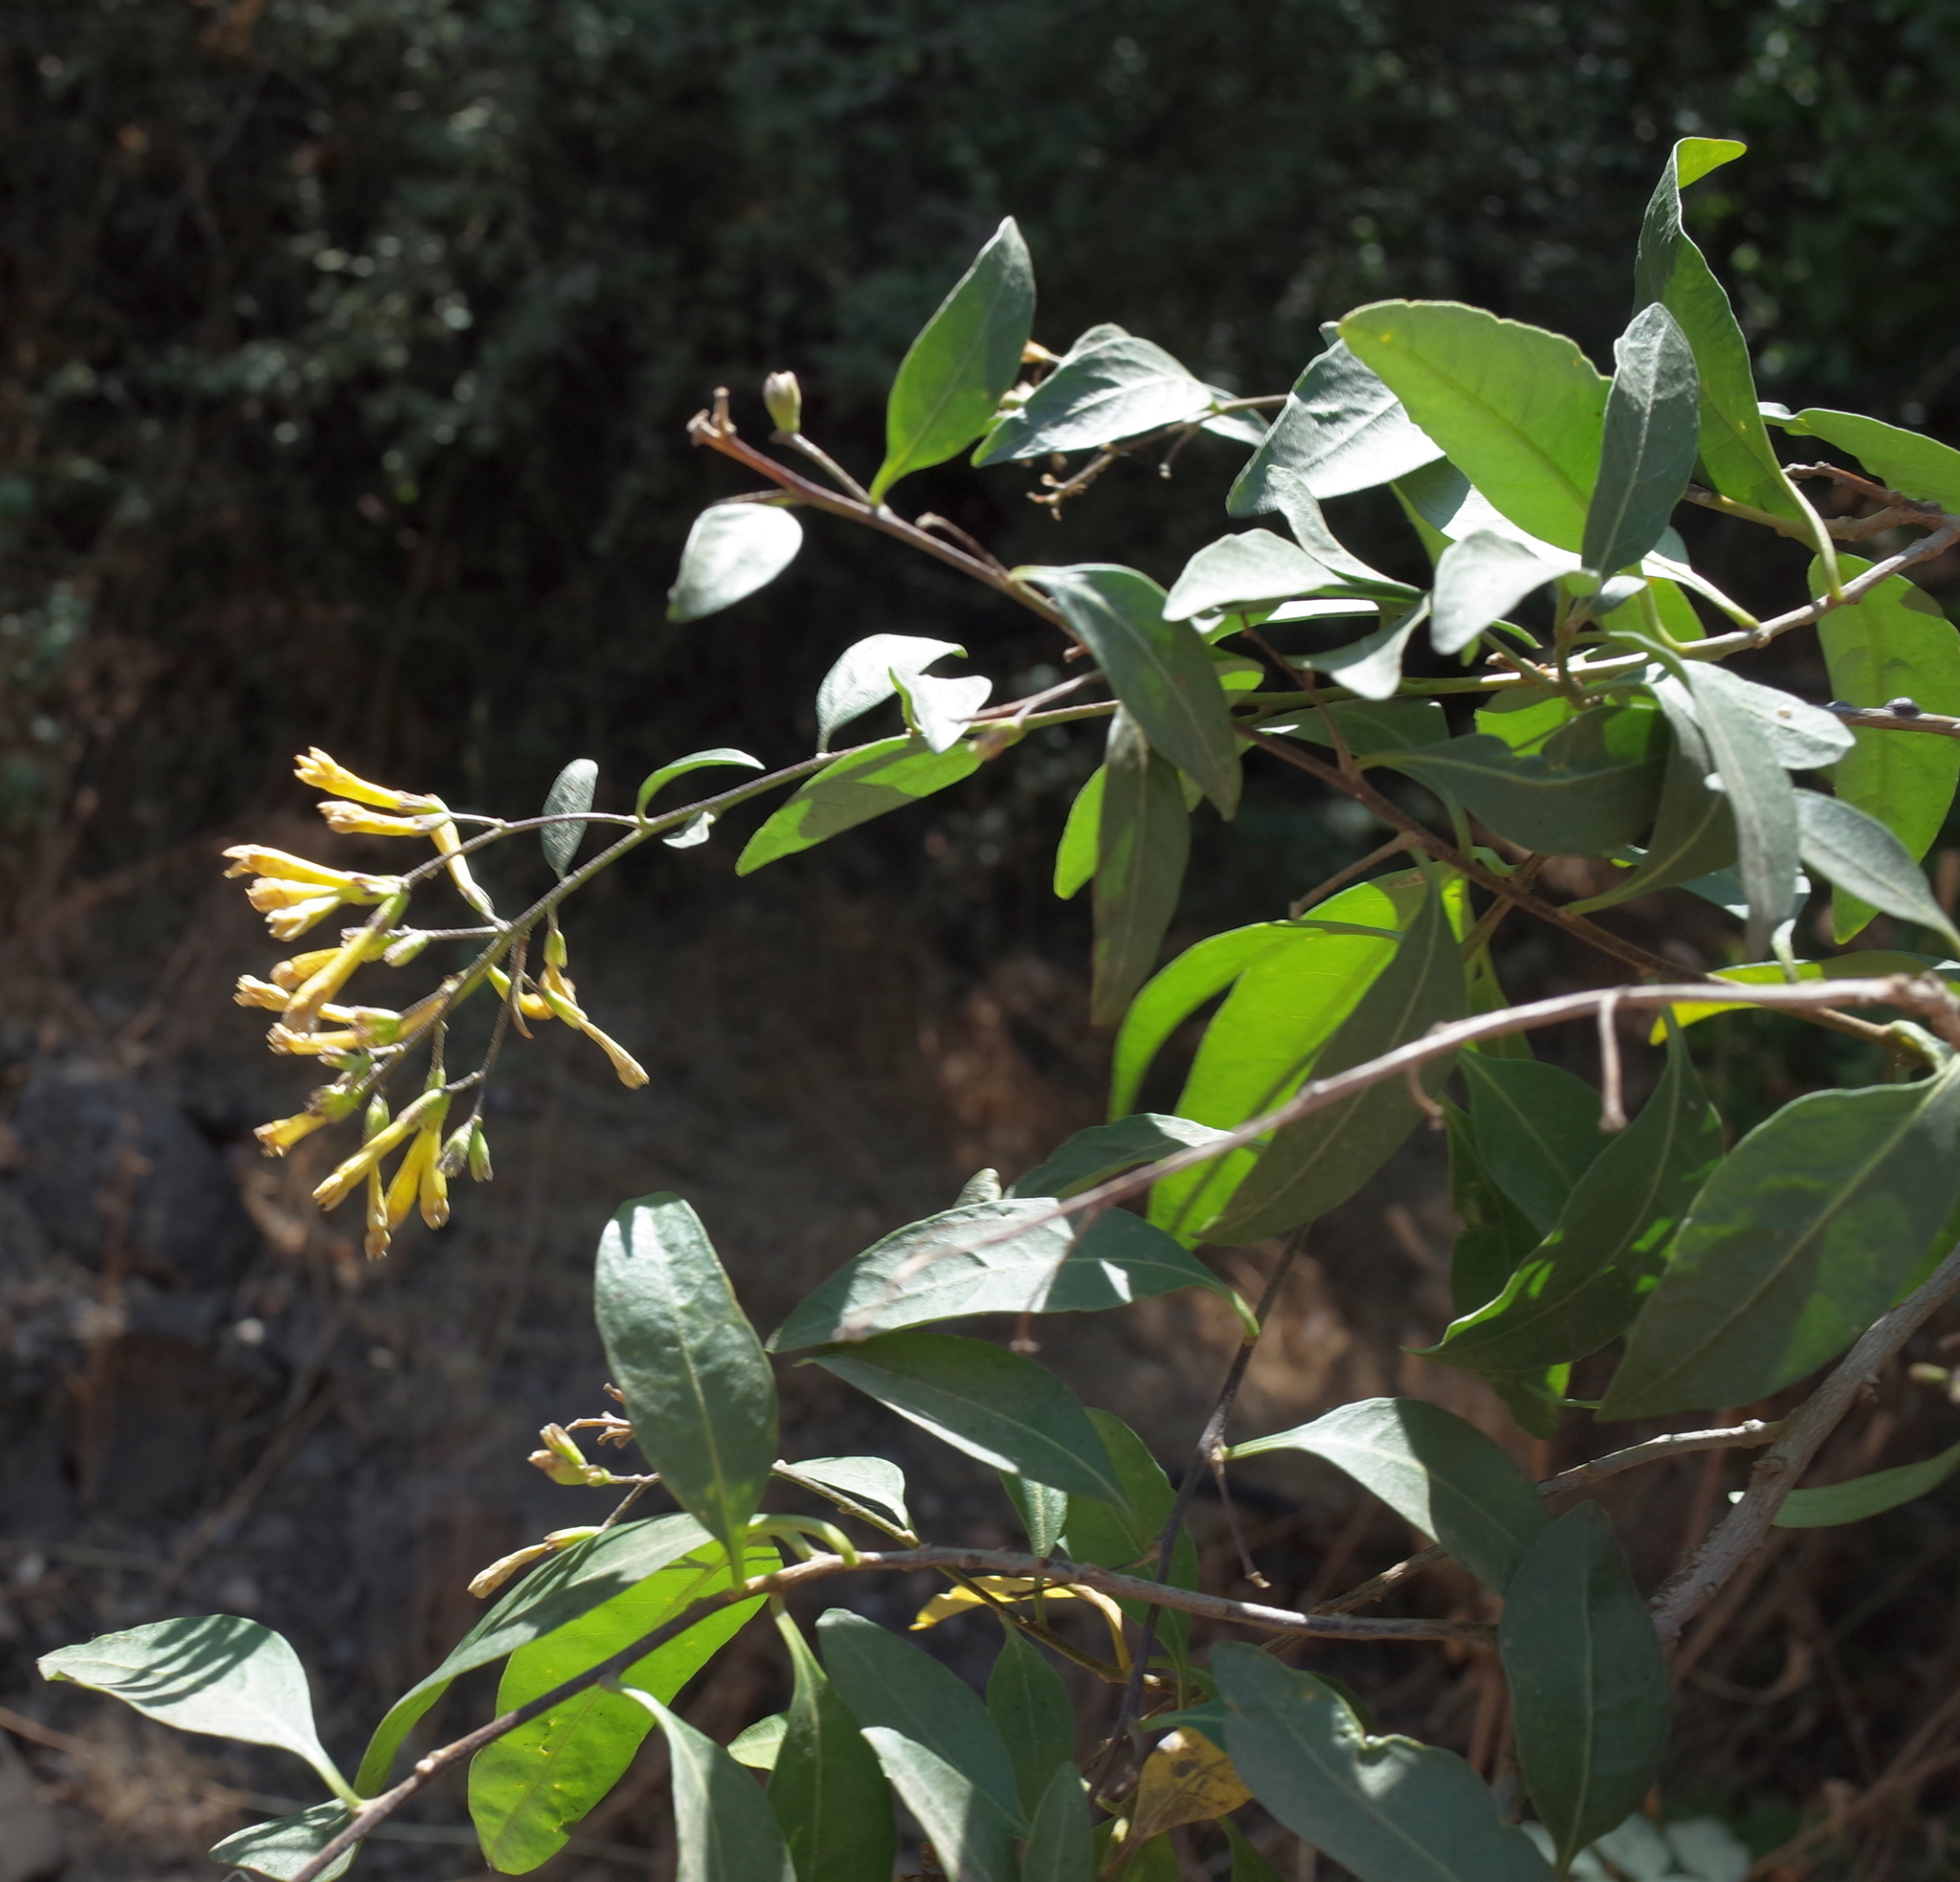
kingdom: Plantae
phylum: Tracheophyta
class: Magnoliopsida
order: Solanales
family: Solanaceae
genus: Cestrum
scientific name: Cestrum parqui
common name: Chilean cestrum
